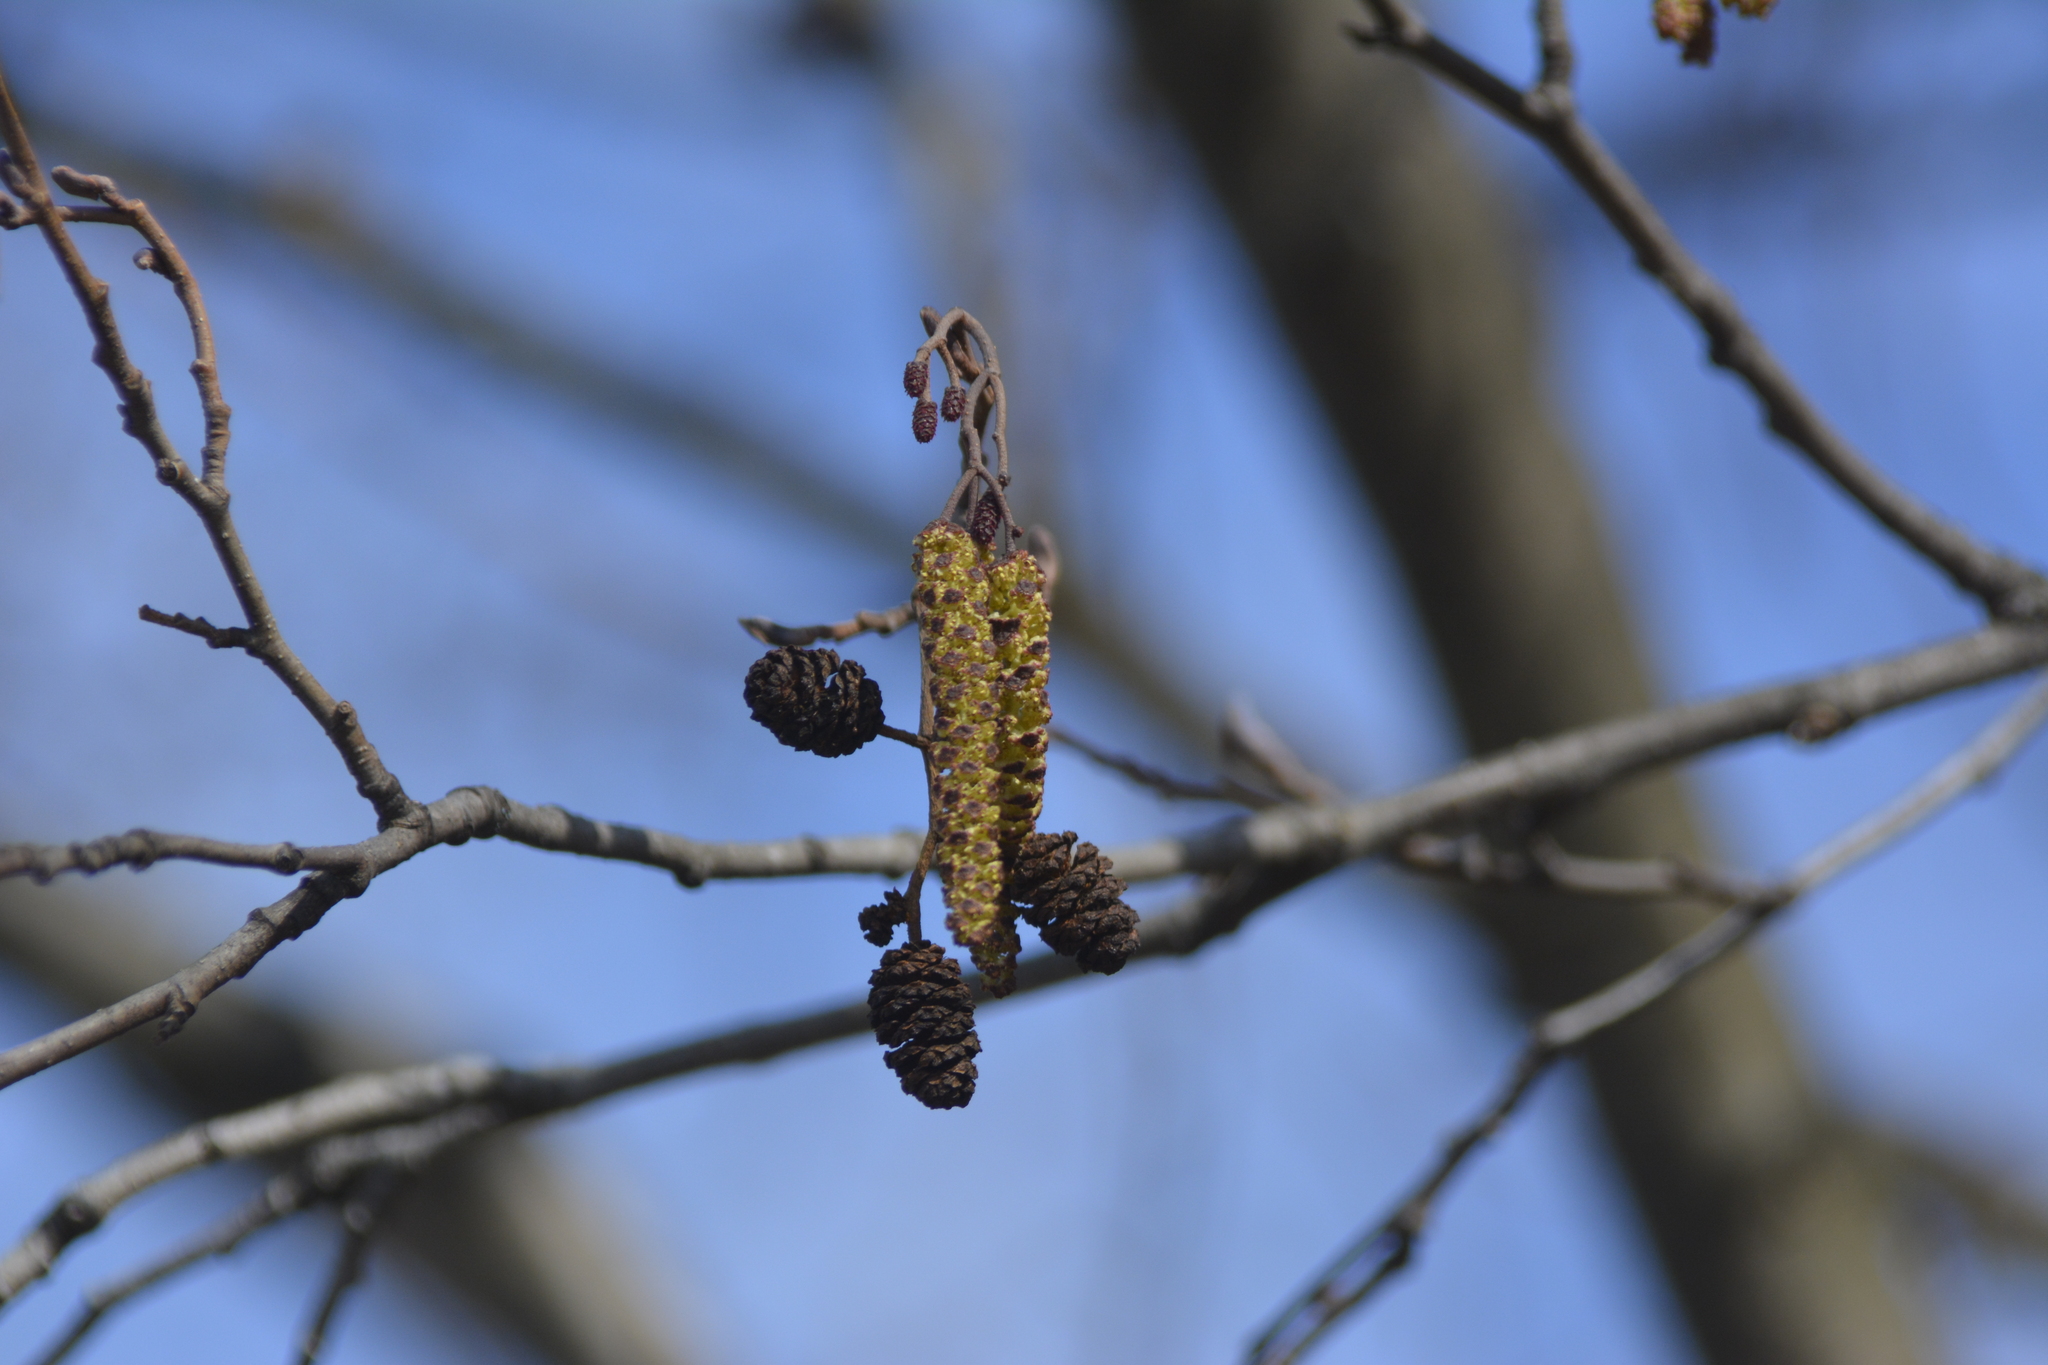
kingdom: Plantae
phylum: Tracheophyta
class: Magnoliopsida
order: Fagales
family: Betulaceae
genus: Alnus
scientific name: Alnus glutinosa
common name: Black alder
